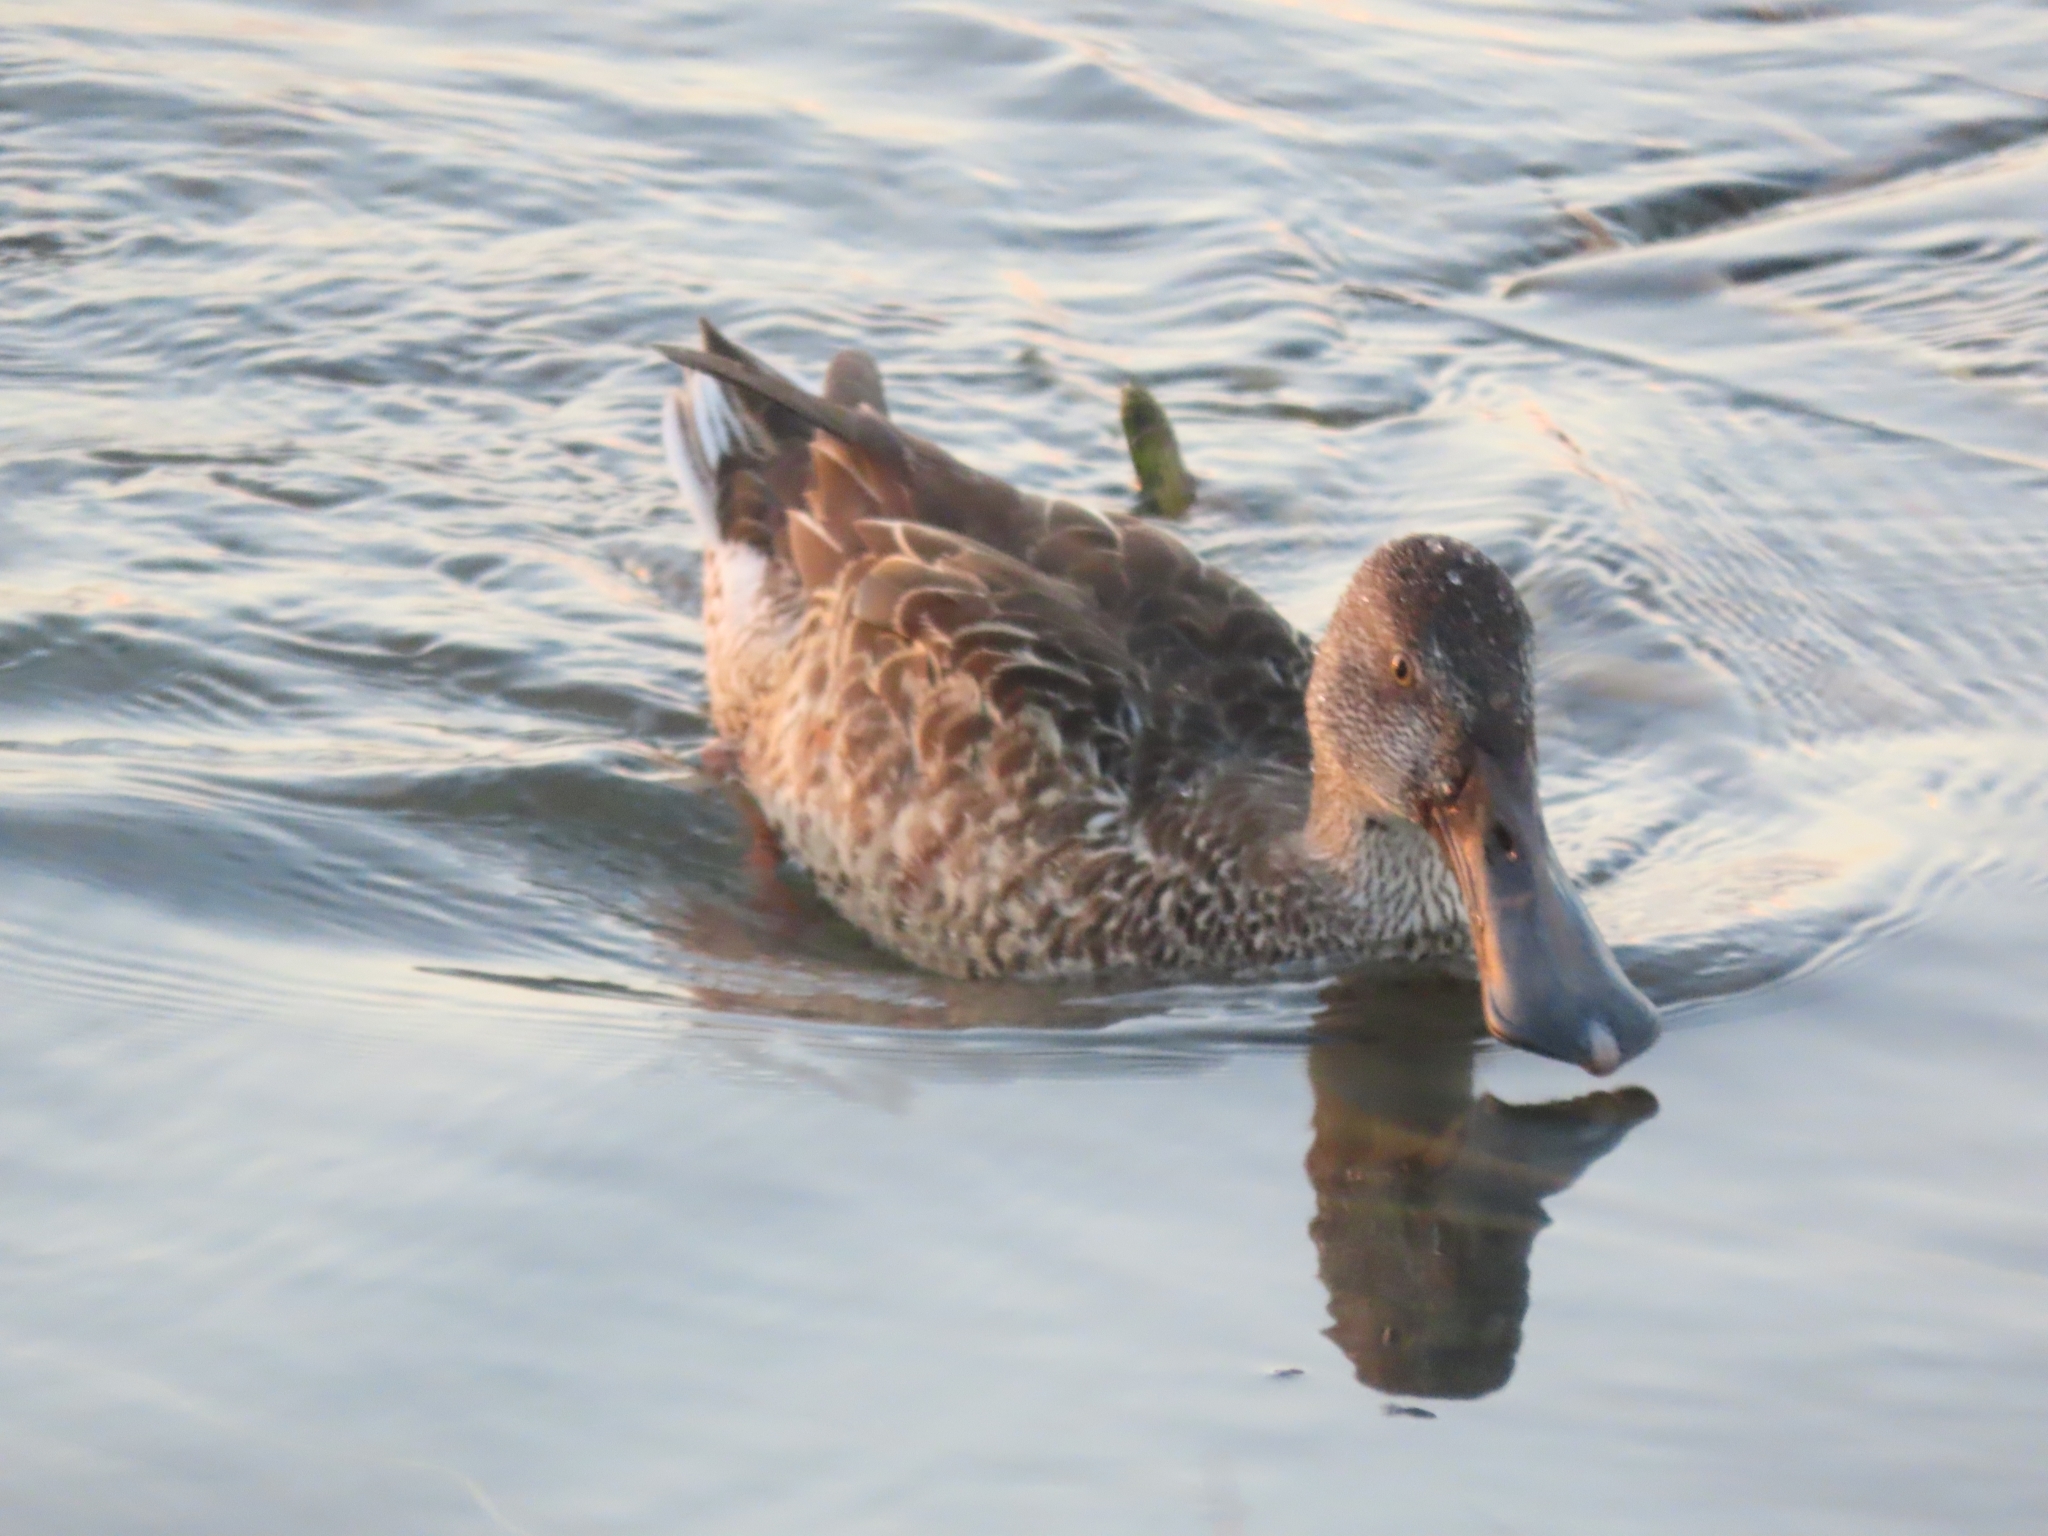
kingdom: Animalia
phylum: Chordata
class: Aves
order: Anseriformes
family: Anatidae
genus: Spatula
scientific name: Spatula clypeata
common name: Northern shoveler
